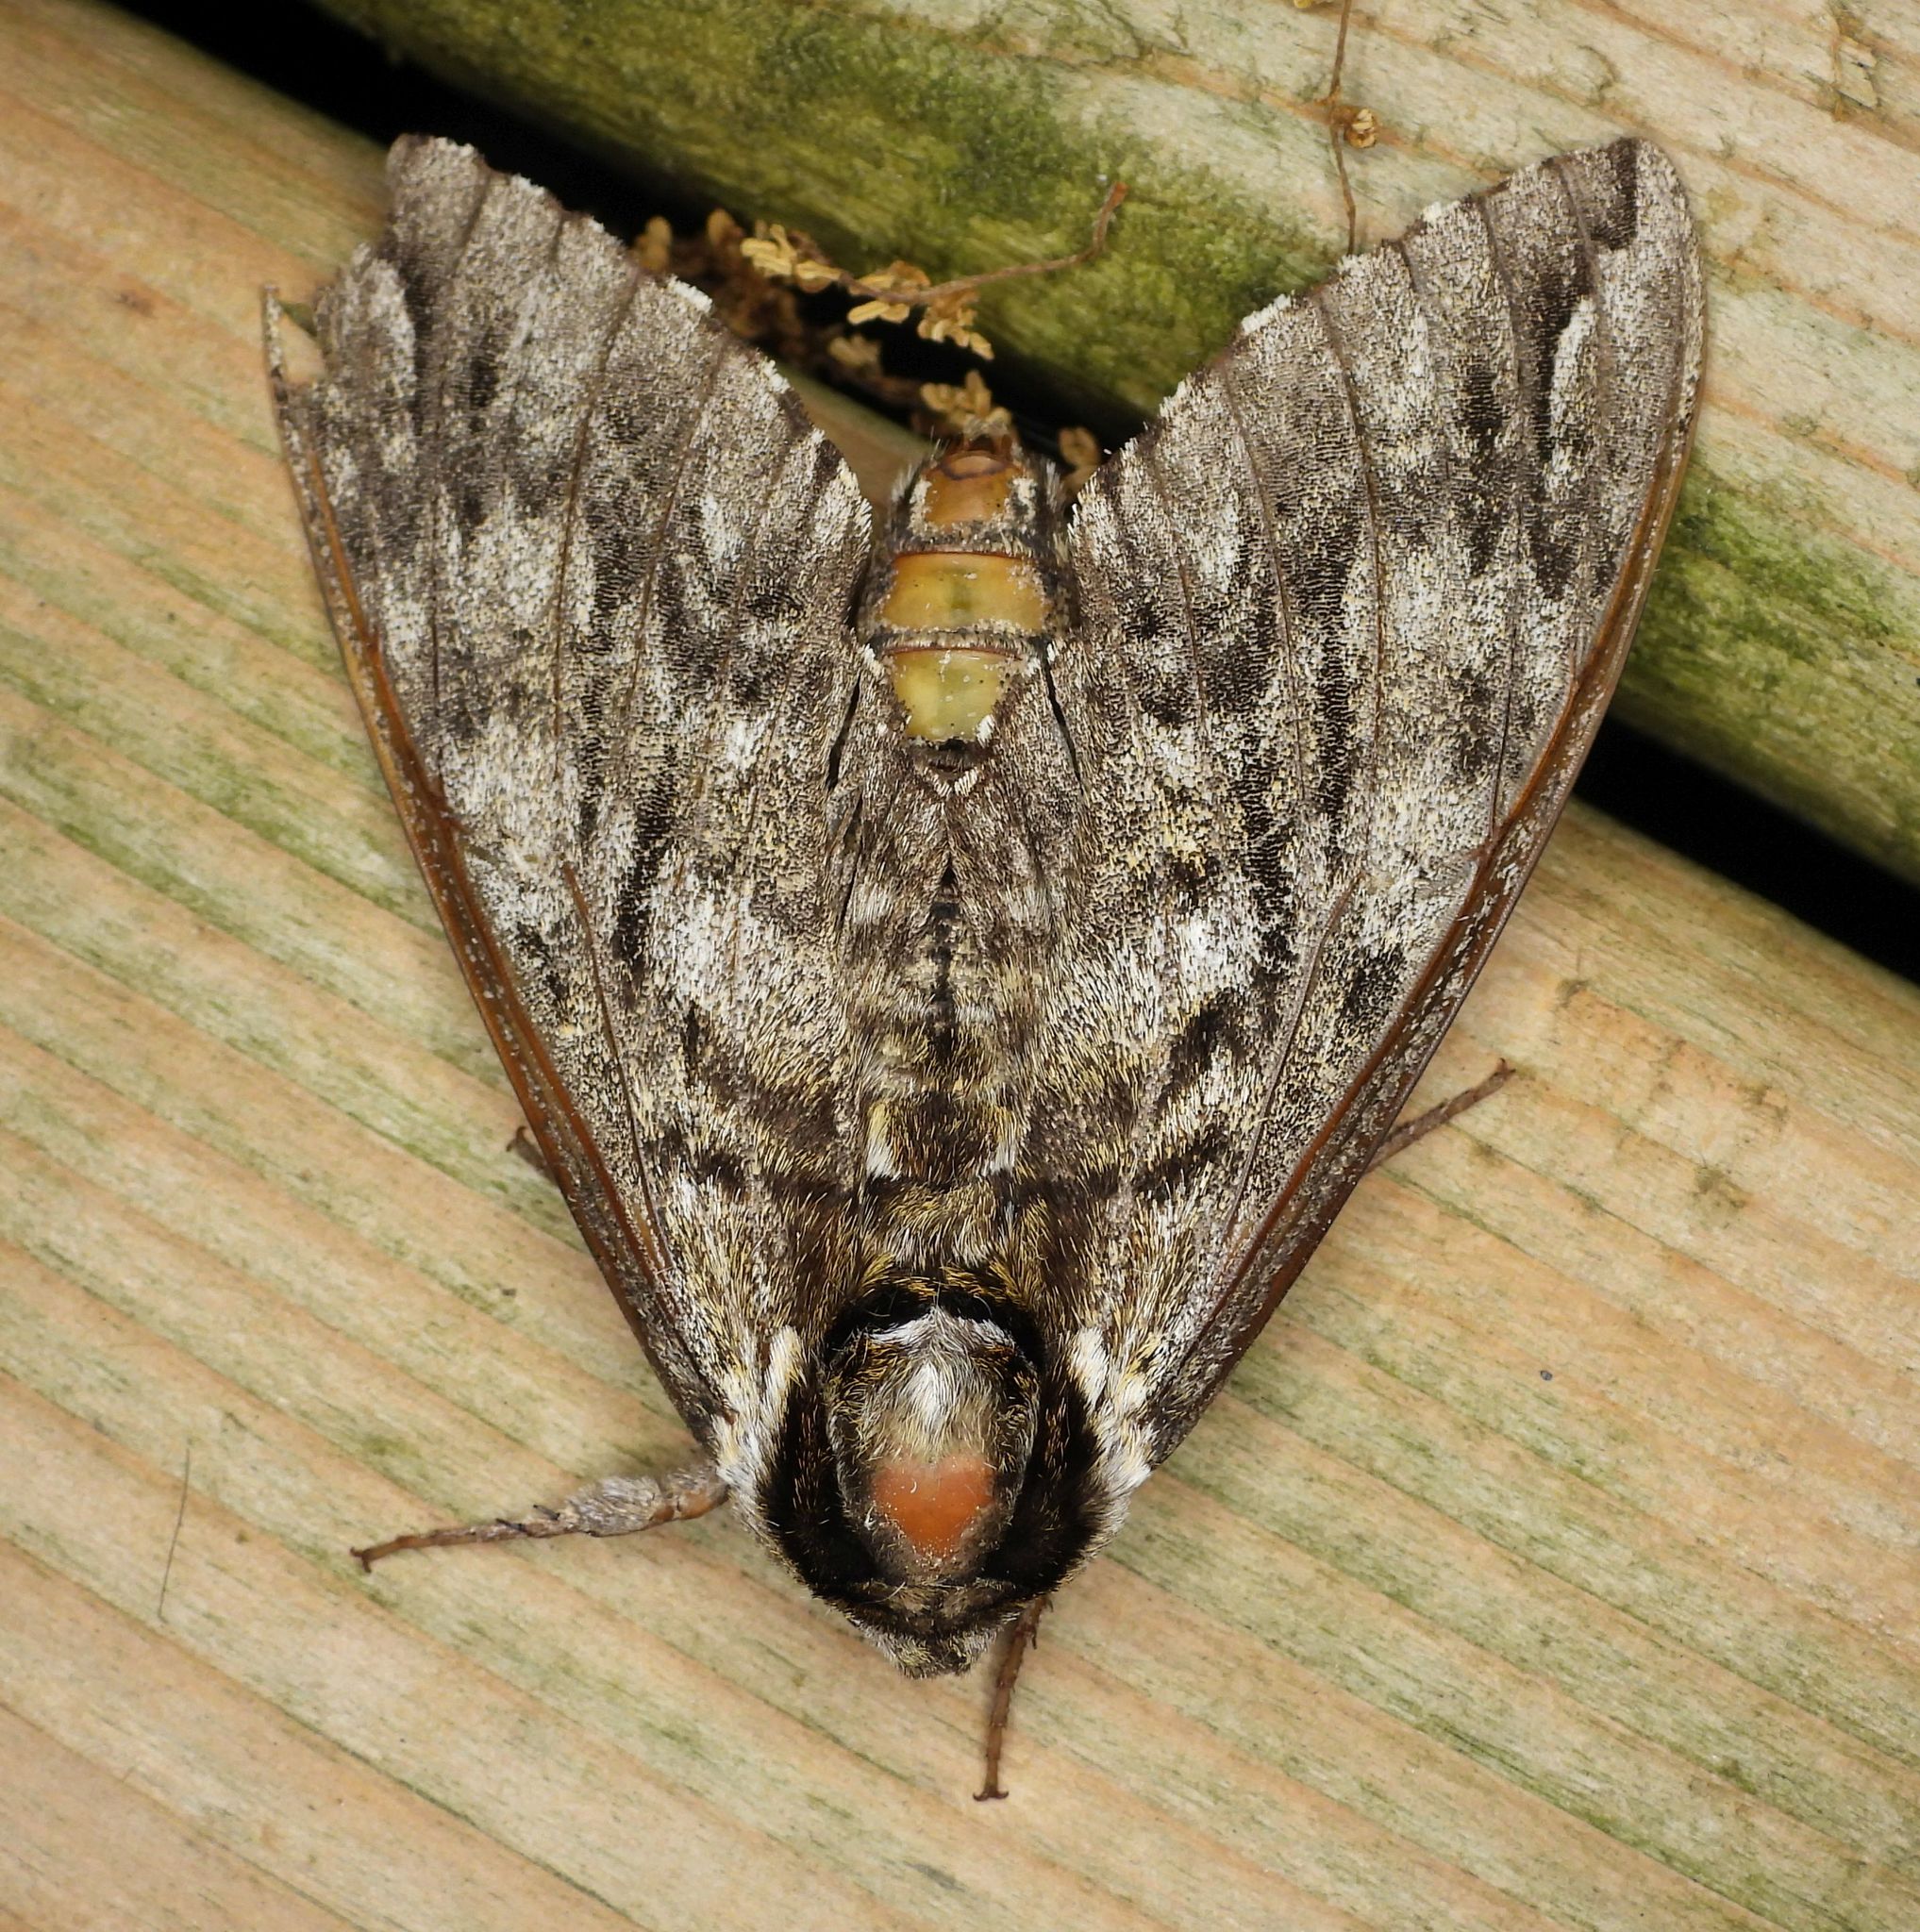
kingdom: Animalia
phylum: Arthropoda
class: Insecta
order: Lepidoptera
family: Sphingidae
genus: Ceratomia
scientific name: Ceratomia undulosa
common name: Waved sphinx
